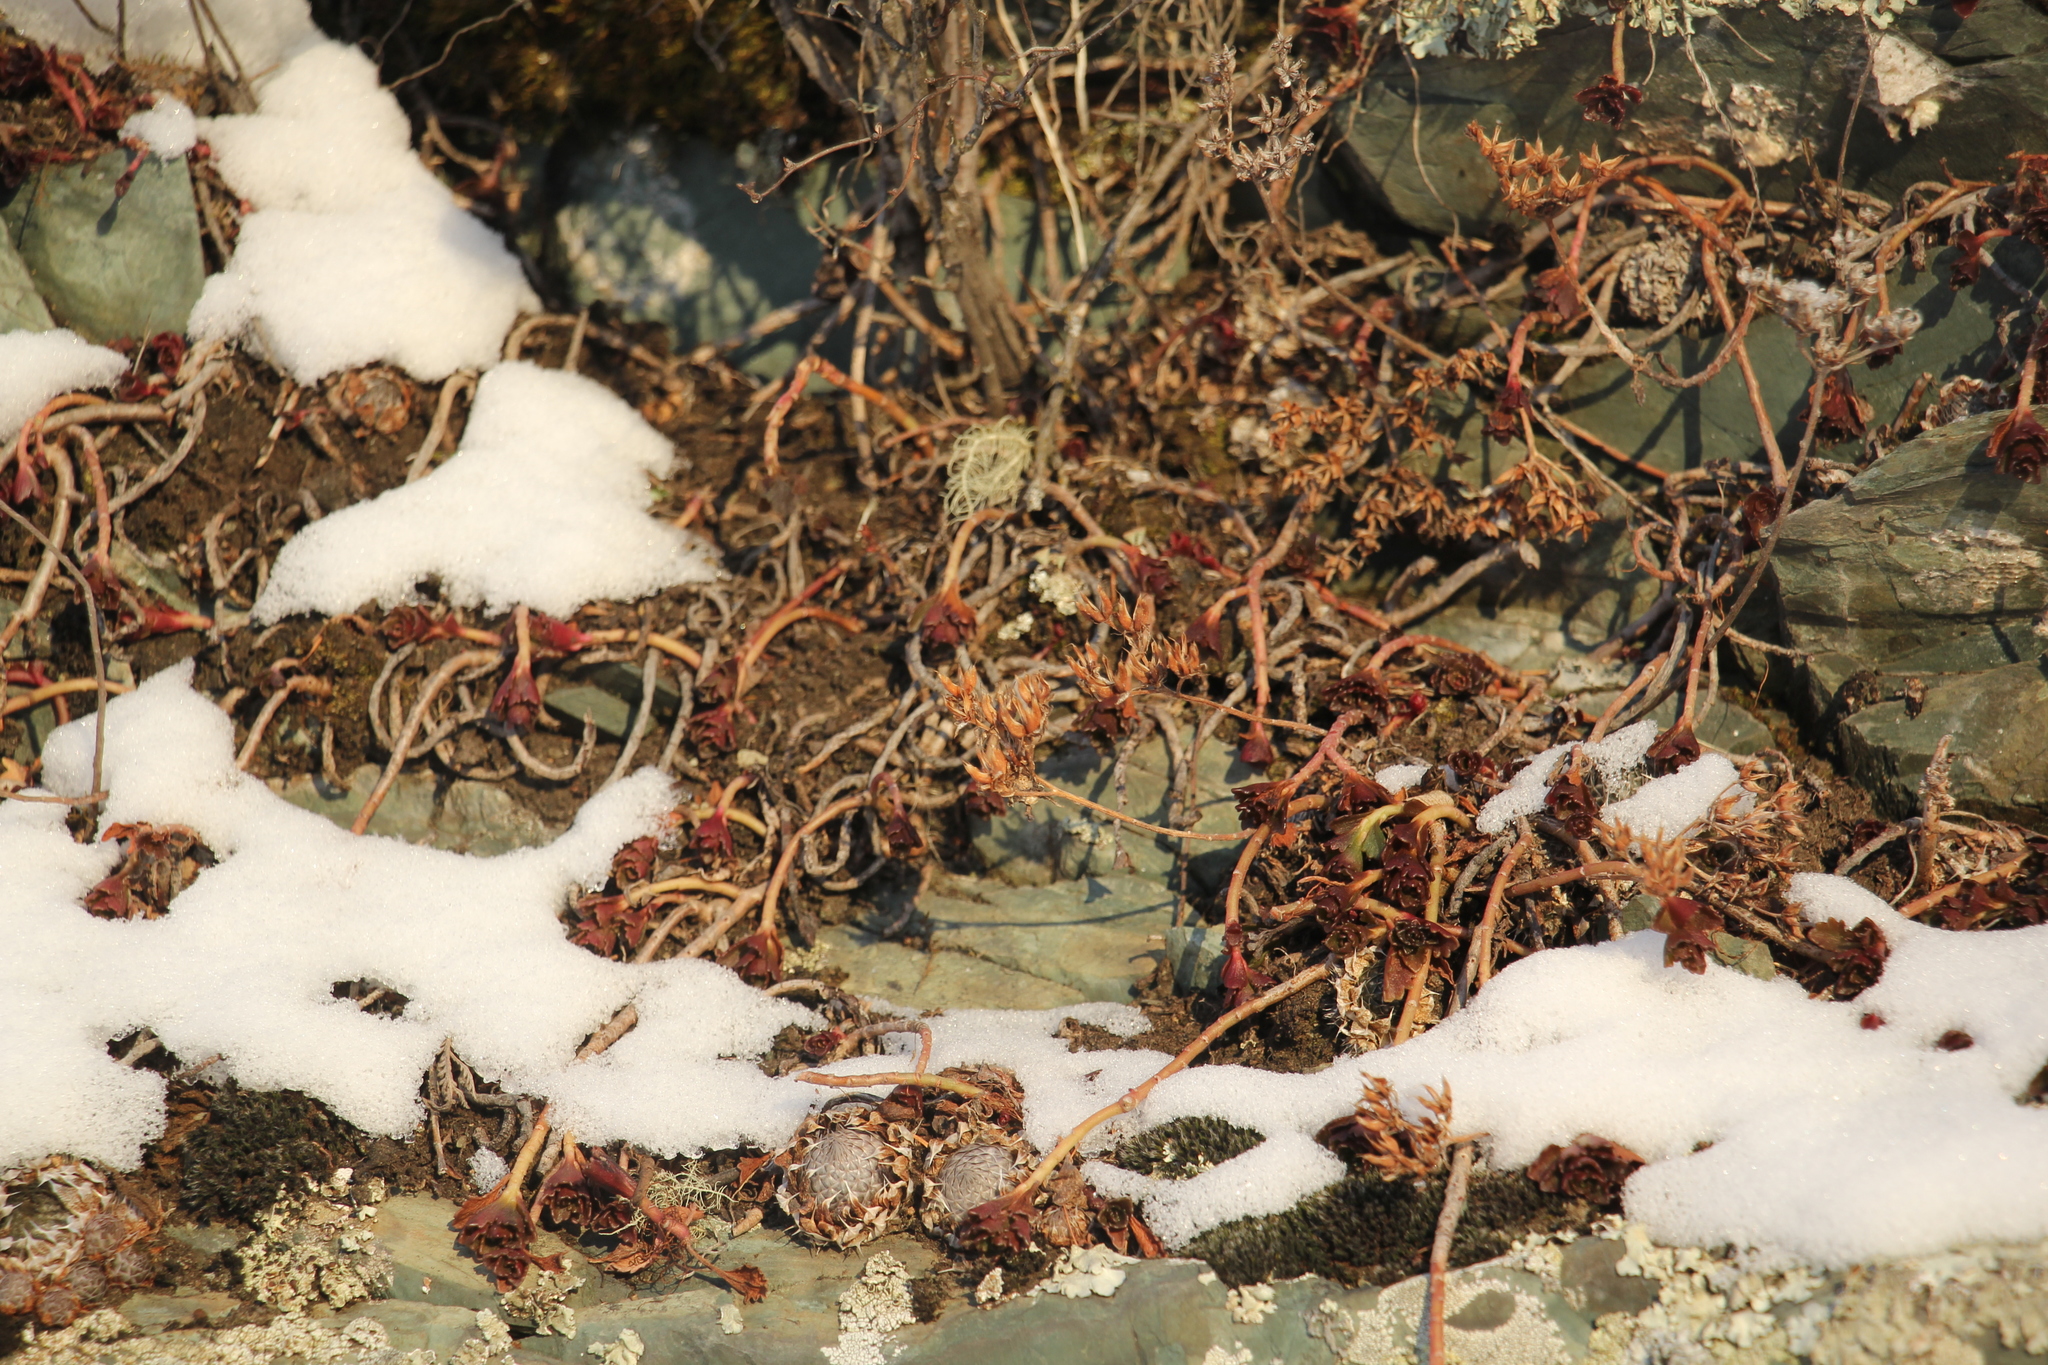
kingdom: Plantae
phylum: Tracheophyta
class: Magnoliopsida
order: Saxifragales
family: Crassulaceae
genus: Phedimus
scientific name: Phedimus hybridus
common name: Hybrid stonecrop
